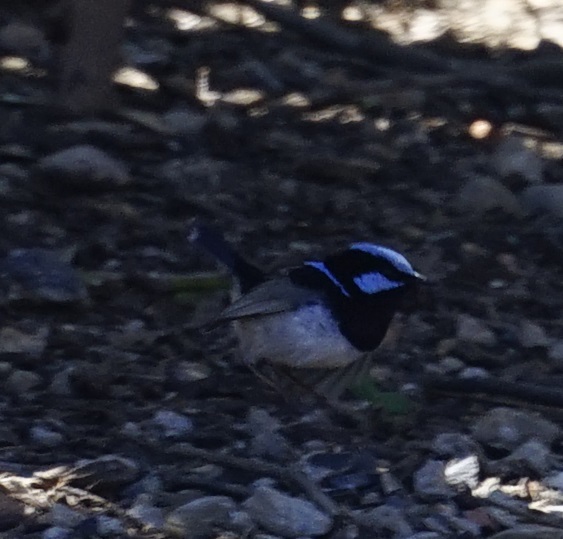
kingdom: Animalia
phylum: Chordata
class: Aves
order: Passeriformes
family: Maluridae
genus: Malurus
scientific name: Malurus cyaneus
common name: Superb fairywren
